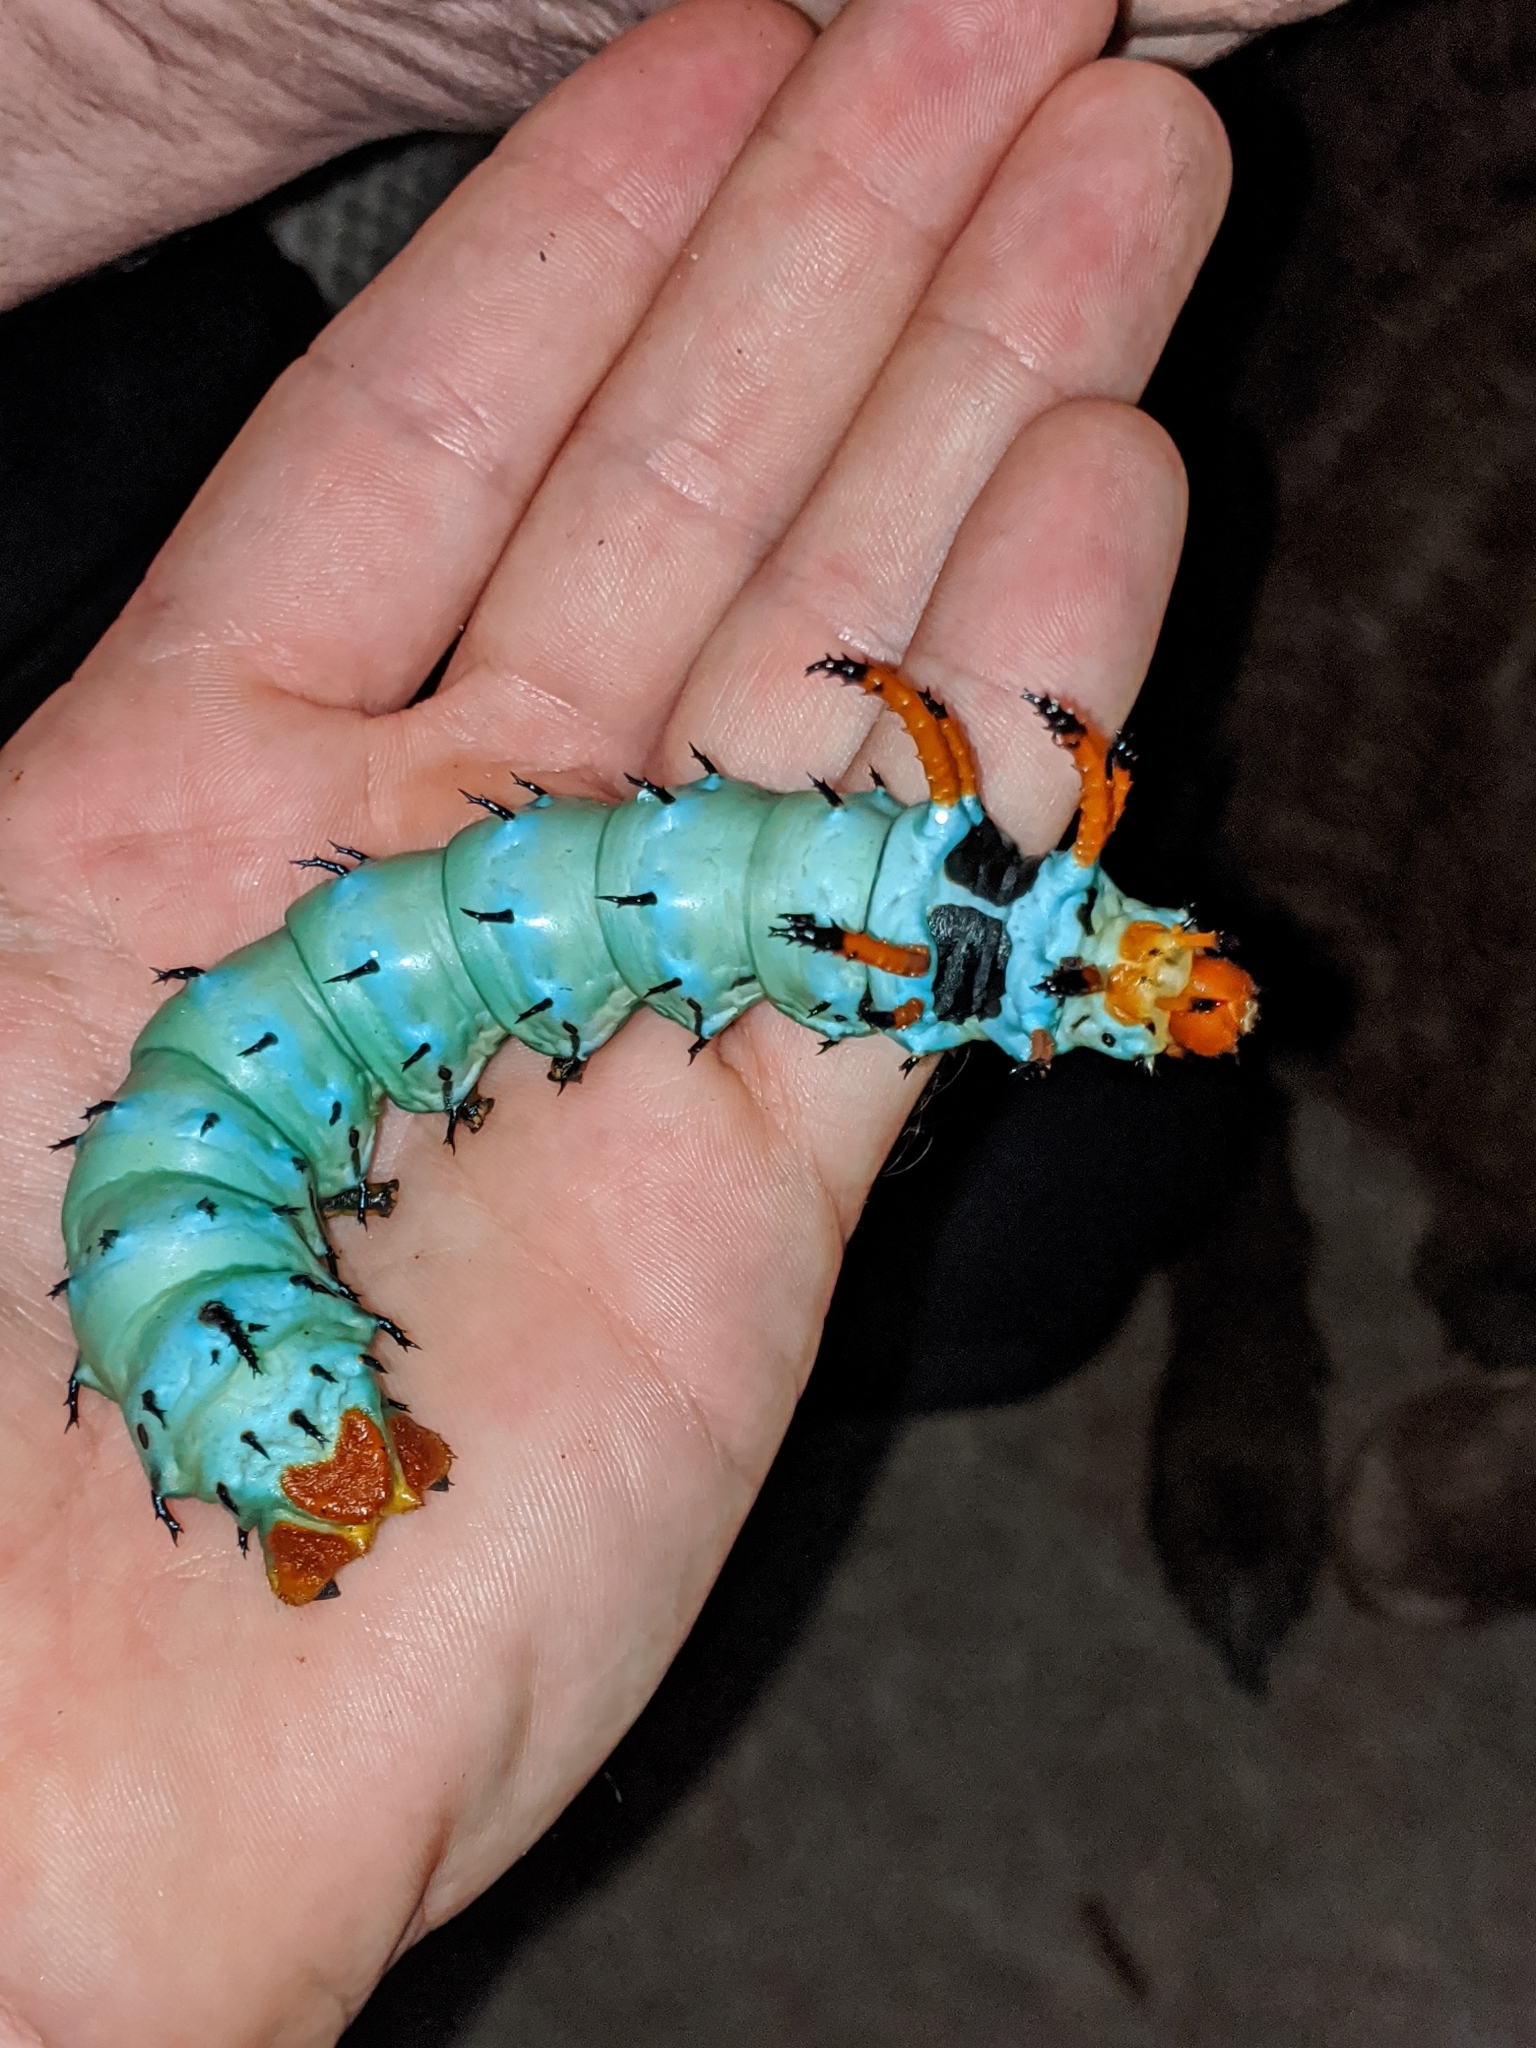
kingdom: Animalia
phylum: Arthropoda
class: Insecta
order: Lepidoptera
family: Saturniidae
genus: Citheronia
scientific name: Citheronia regalis
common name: Hickory horned devil
